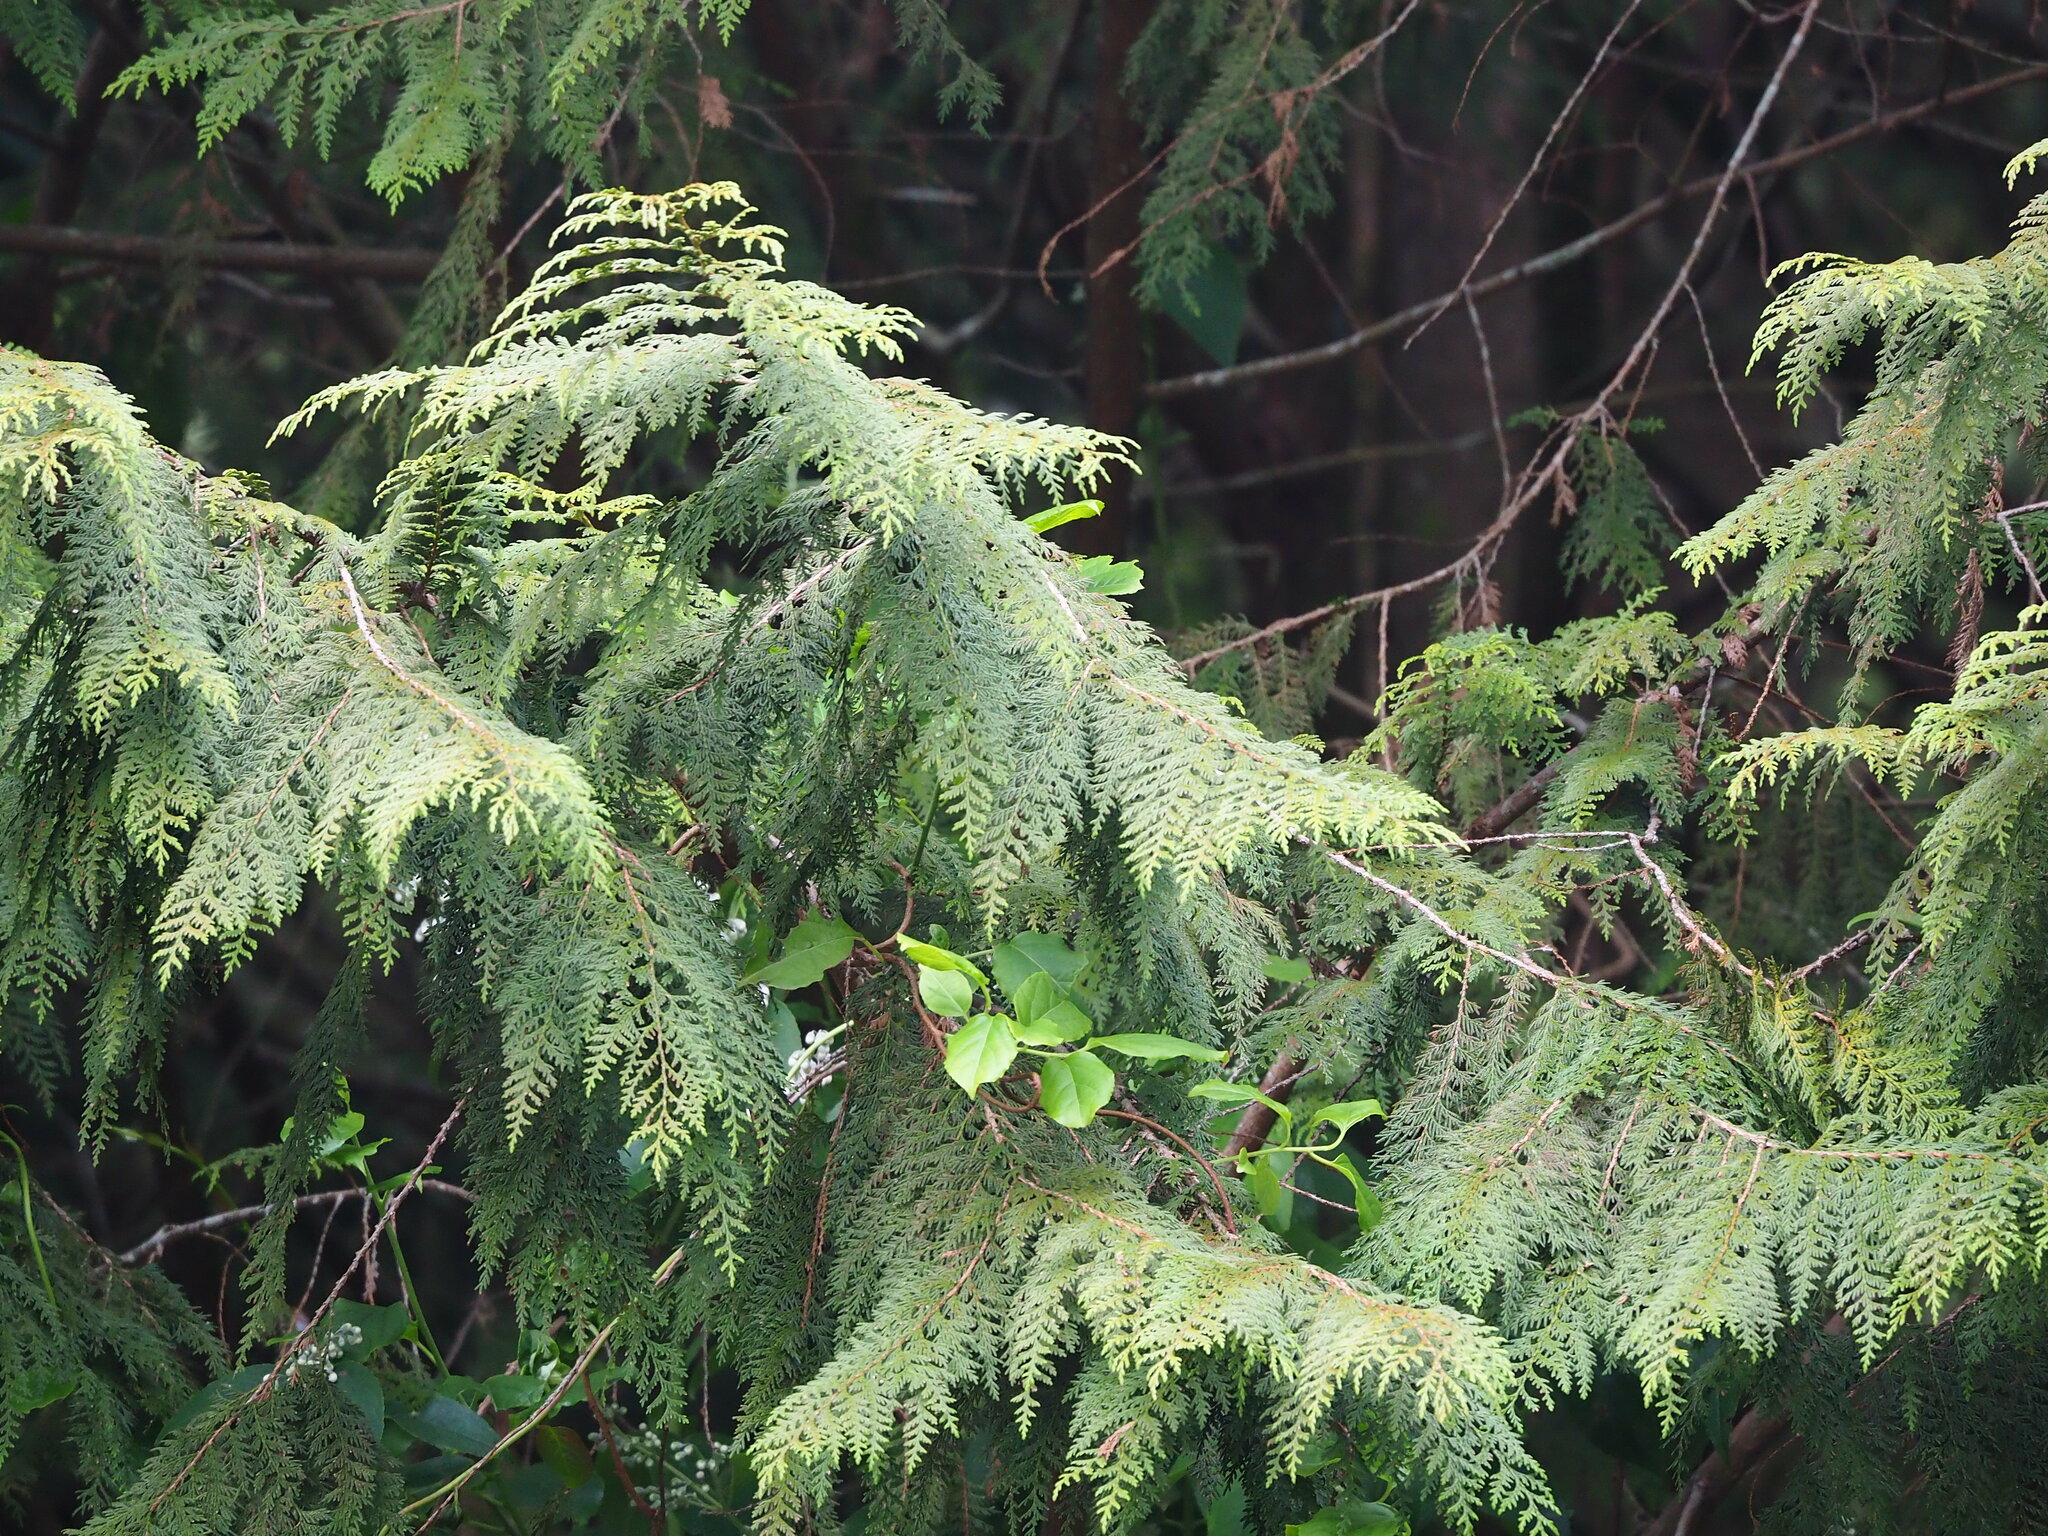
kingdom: Plantae
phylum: Tracheophyta
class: Pinopsida
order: Pinales
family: Cupressaceae
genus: Chamaecyparis
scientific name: Chamaecyparis formosensis
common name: Formosan cypress
